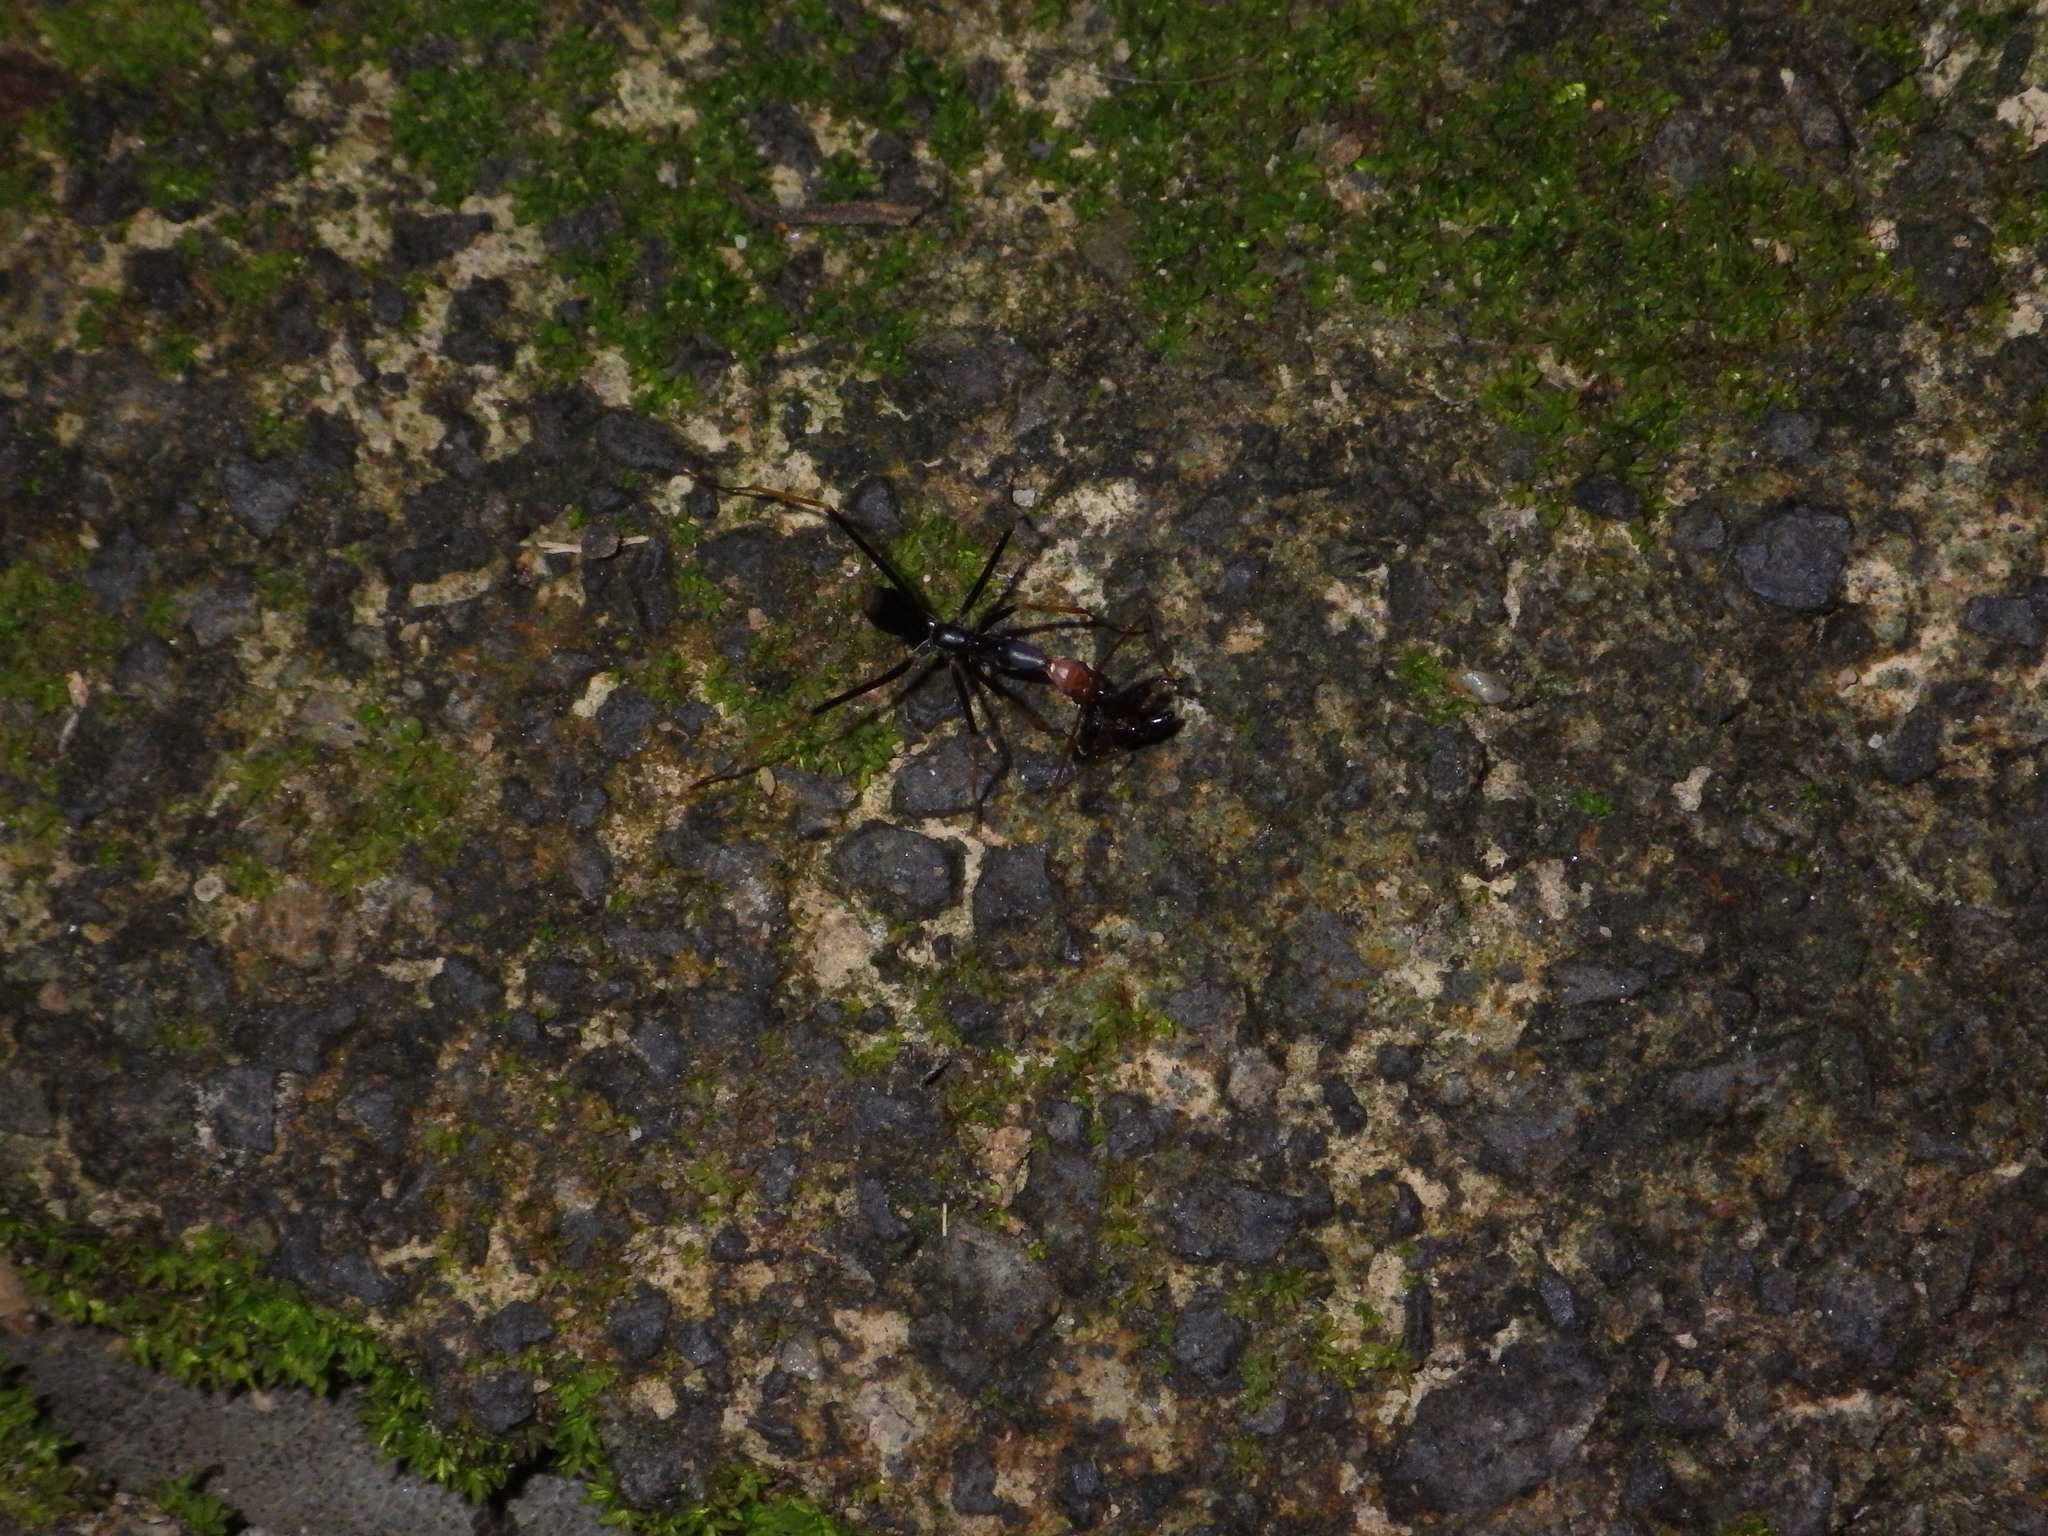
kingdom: Animalia
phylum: Arthropoda
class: Insecta
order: Hymenoptera
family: Formicidae
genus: Leptomyrmex
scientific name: Leptomyrmex ruficeps
